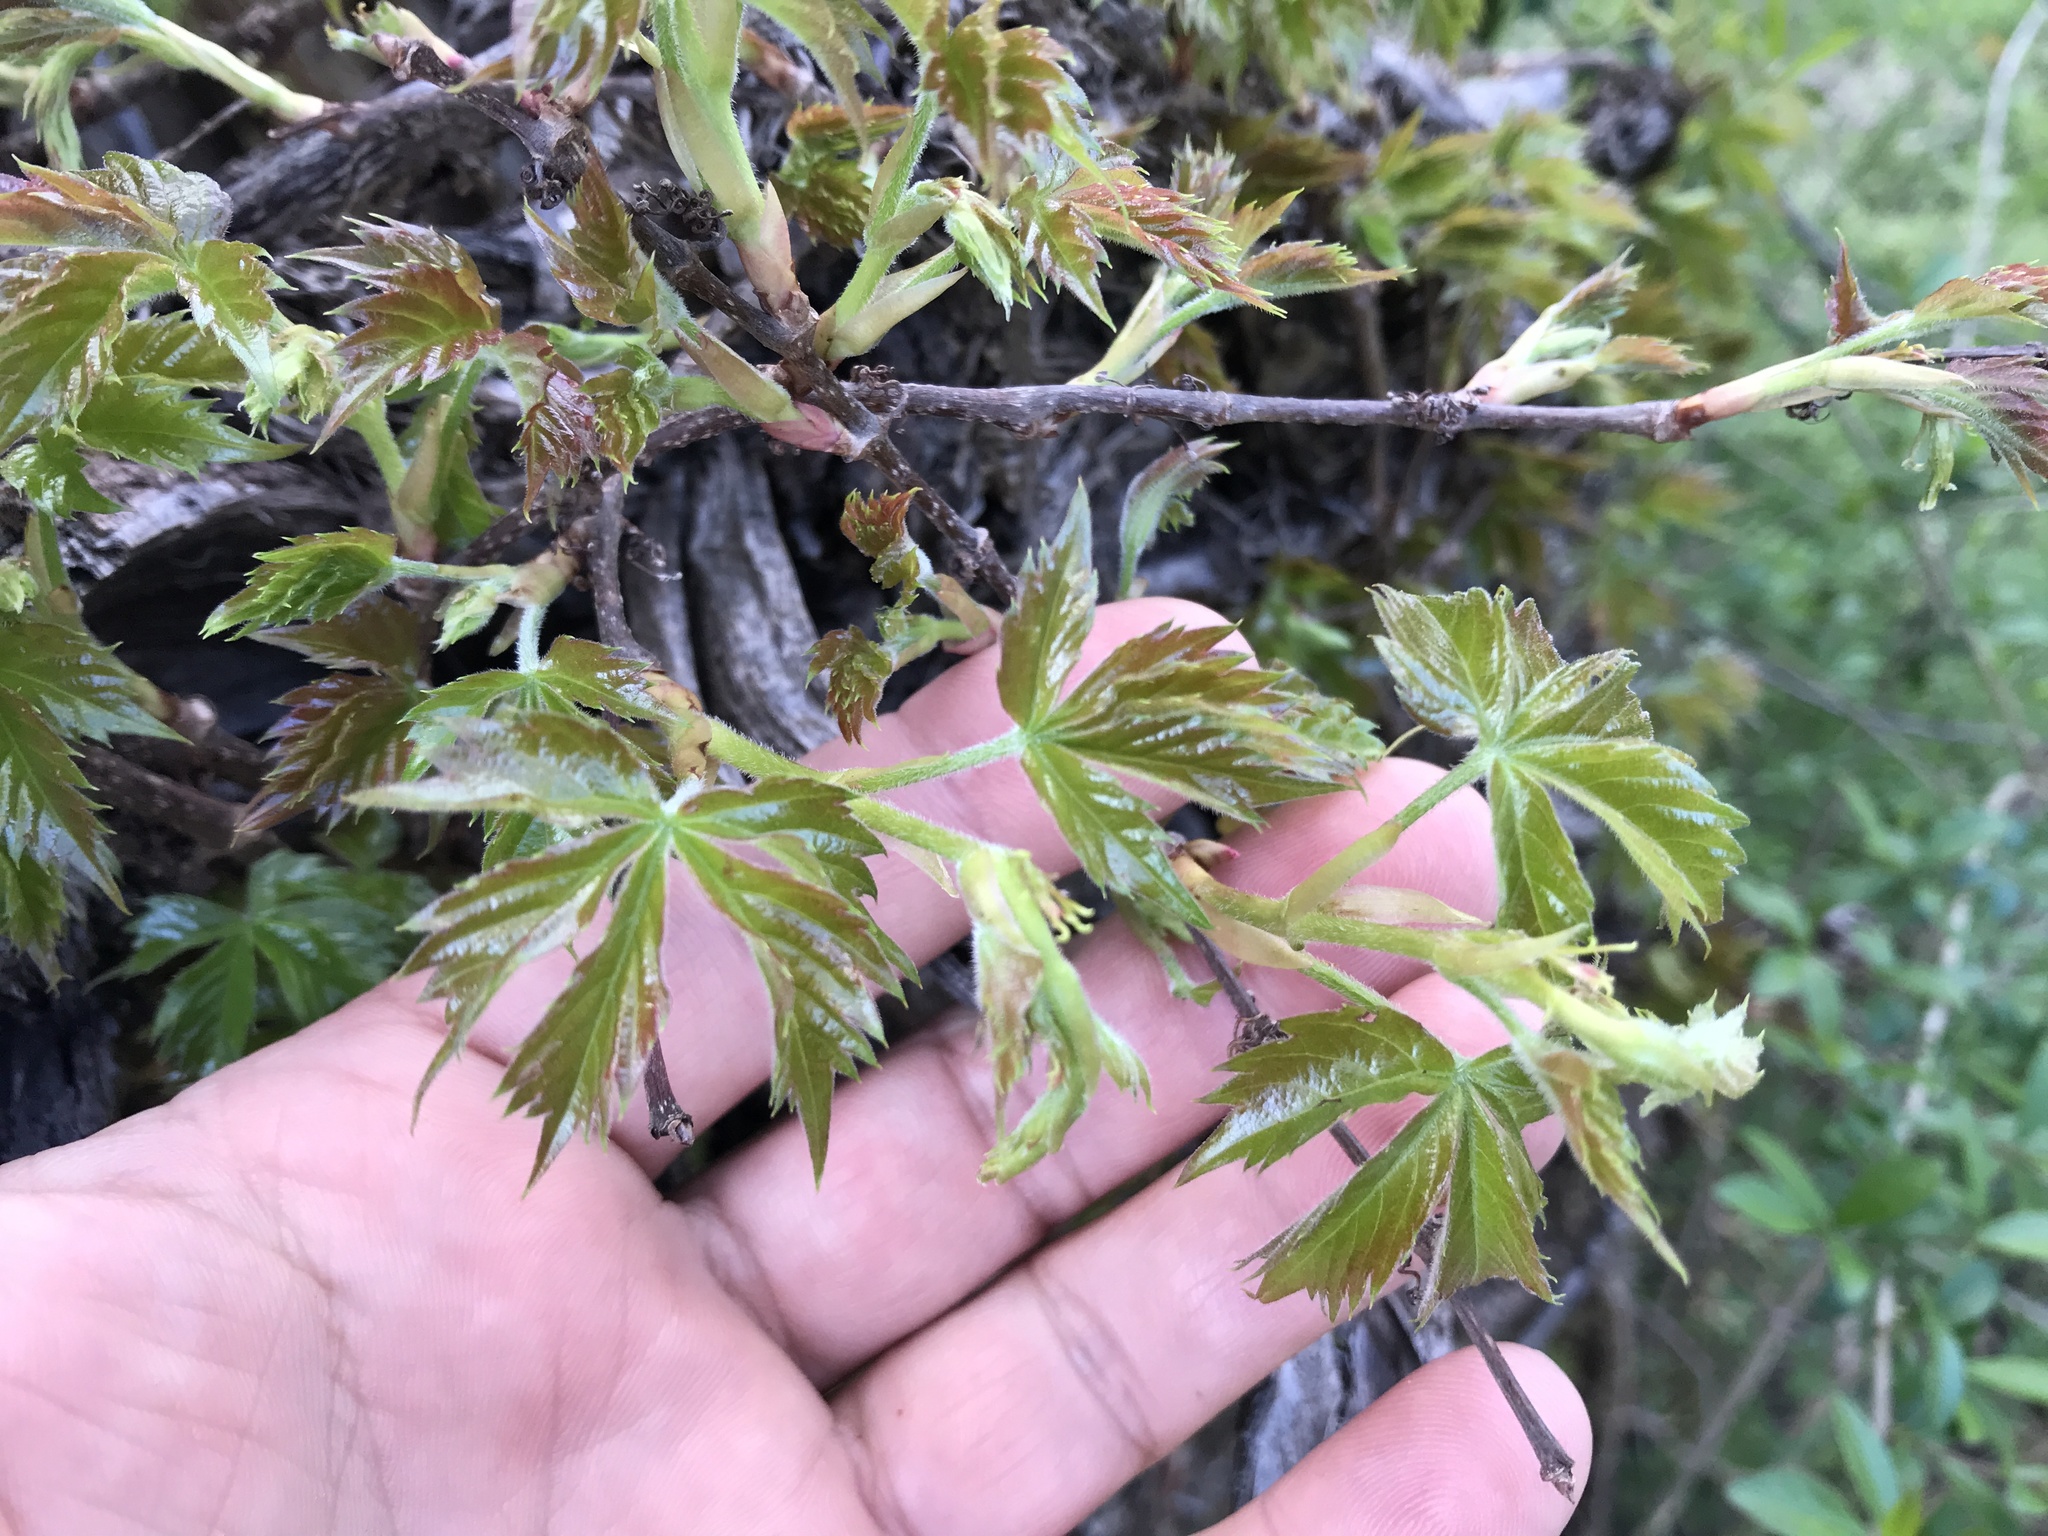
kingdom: Plantae
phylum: Tracheophyta
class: Magnoliopsida
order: Vitales
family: Vitaceae
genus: Parthenocissus
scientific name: Parthenocissus quinquefolia
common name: Virginia-creeper
